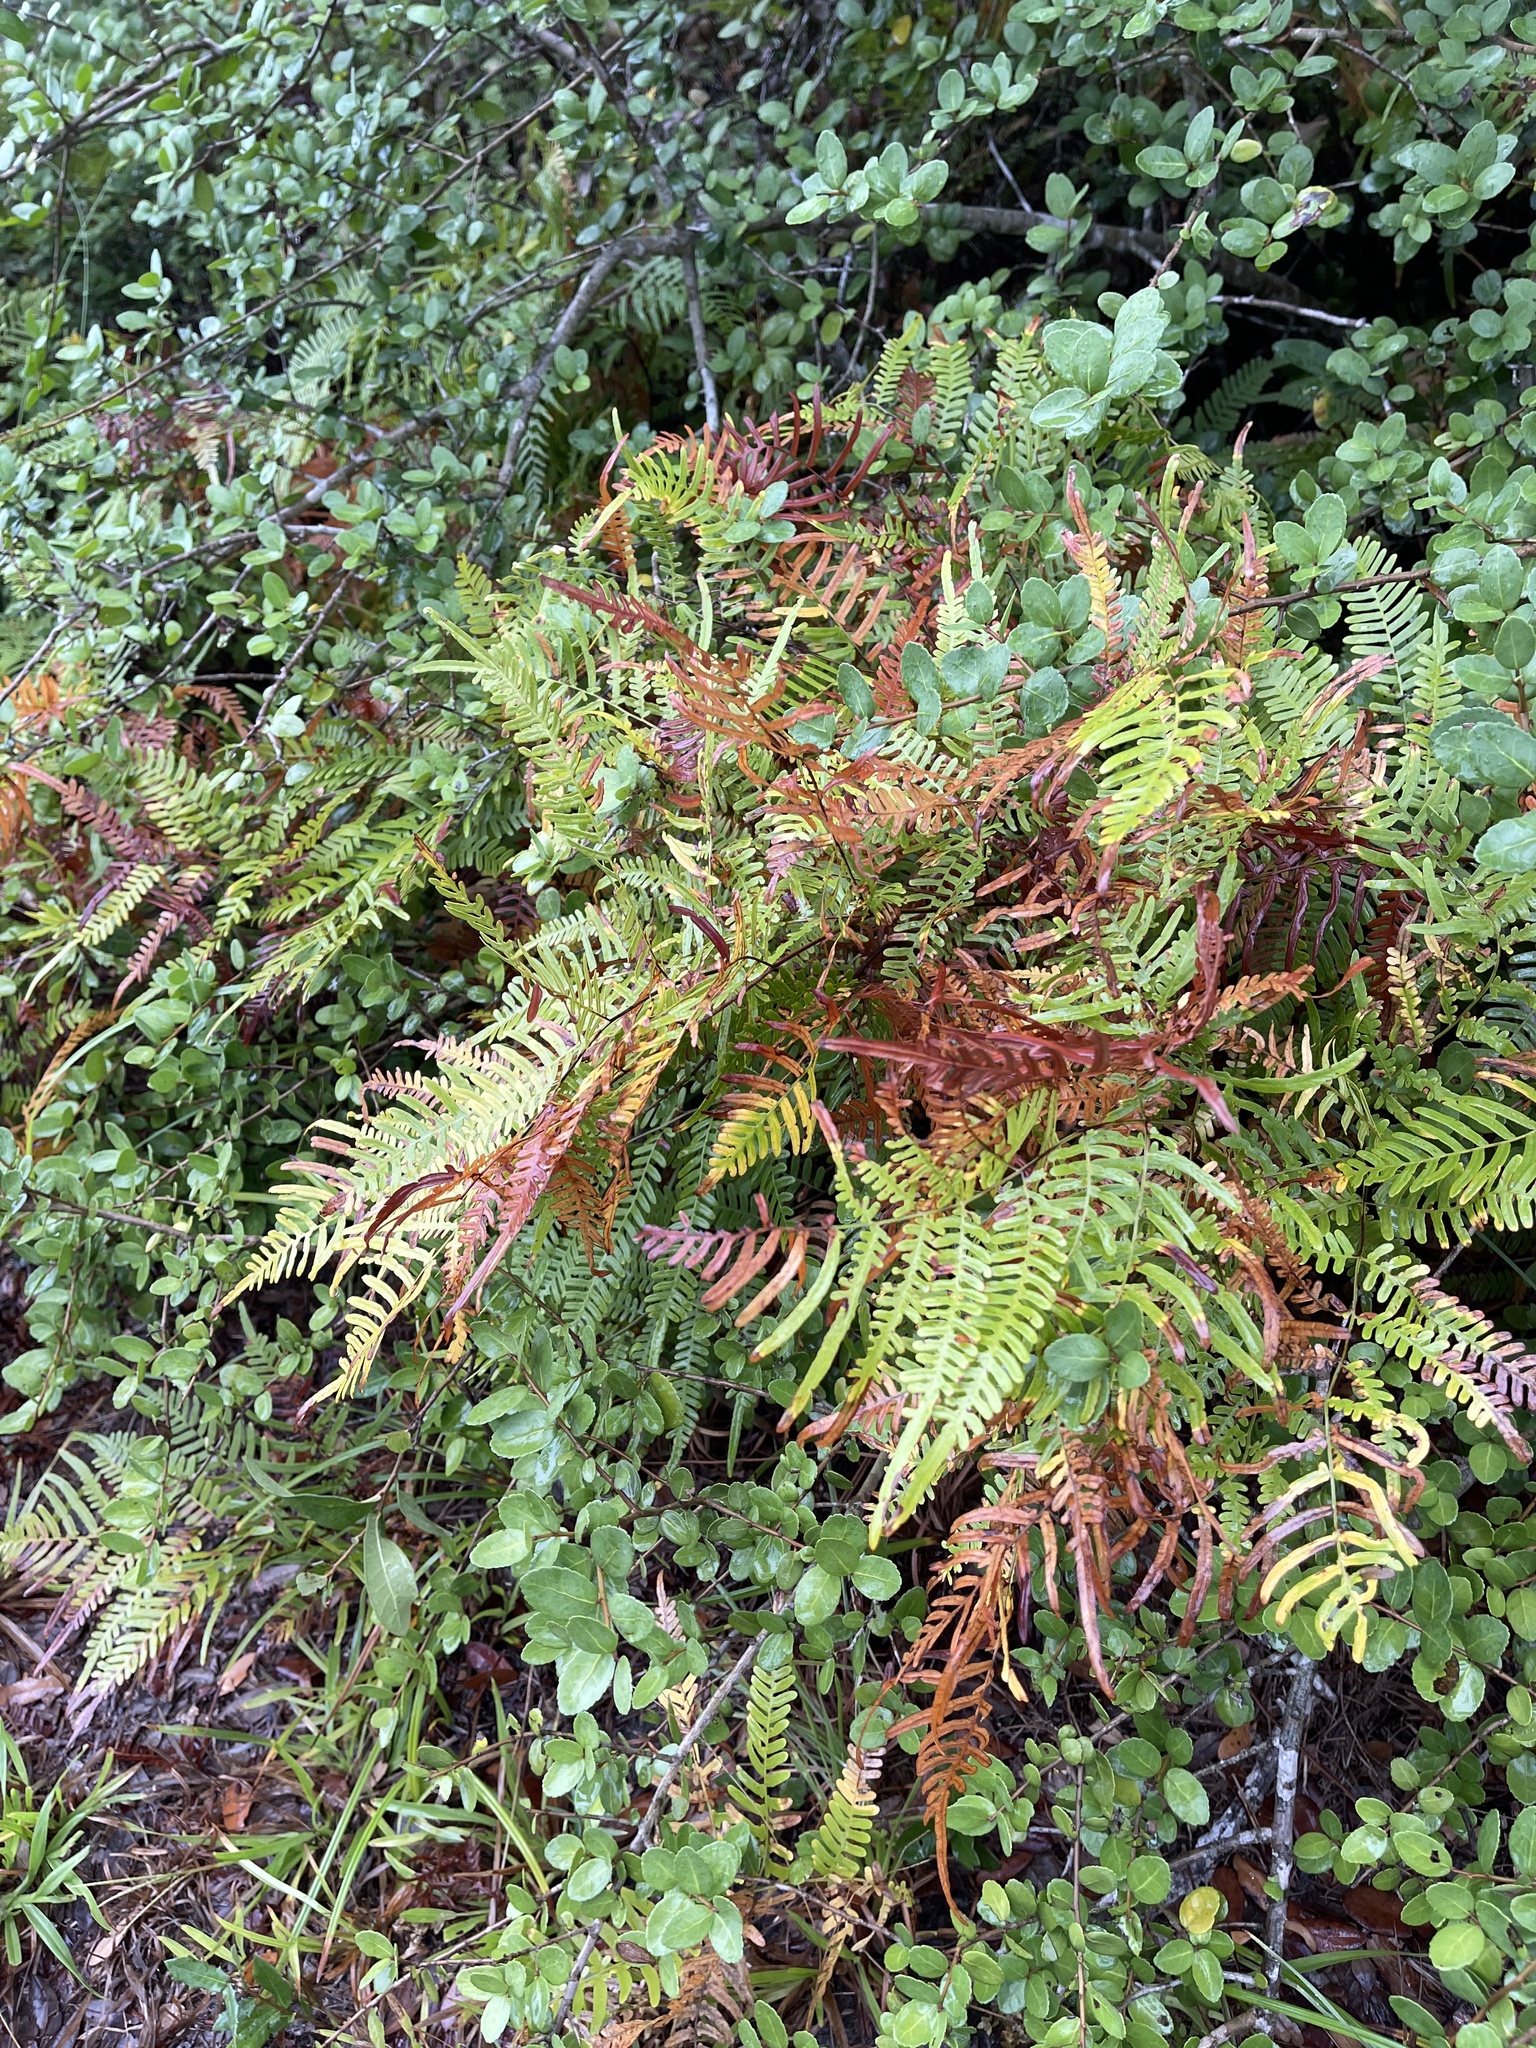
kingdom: Plantae
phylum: Tracheophyta
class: Polypodiopsida
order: Polypodiales
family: Dennstaedtiaceae
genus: Pteridium
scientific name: Pteridium
